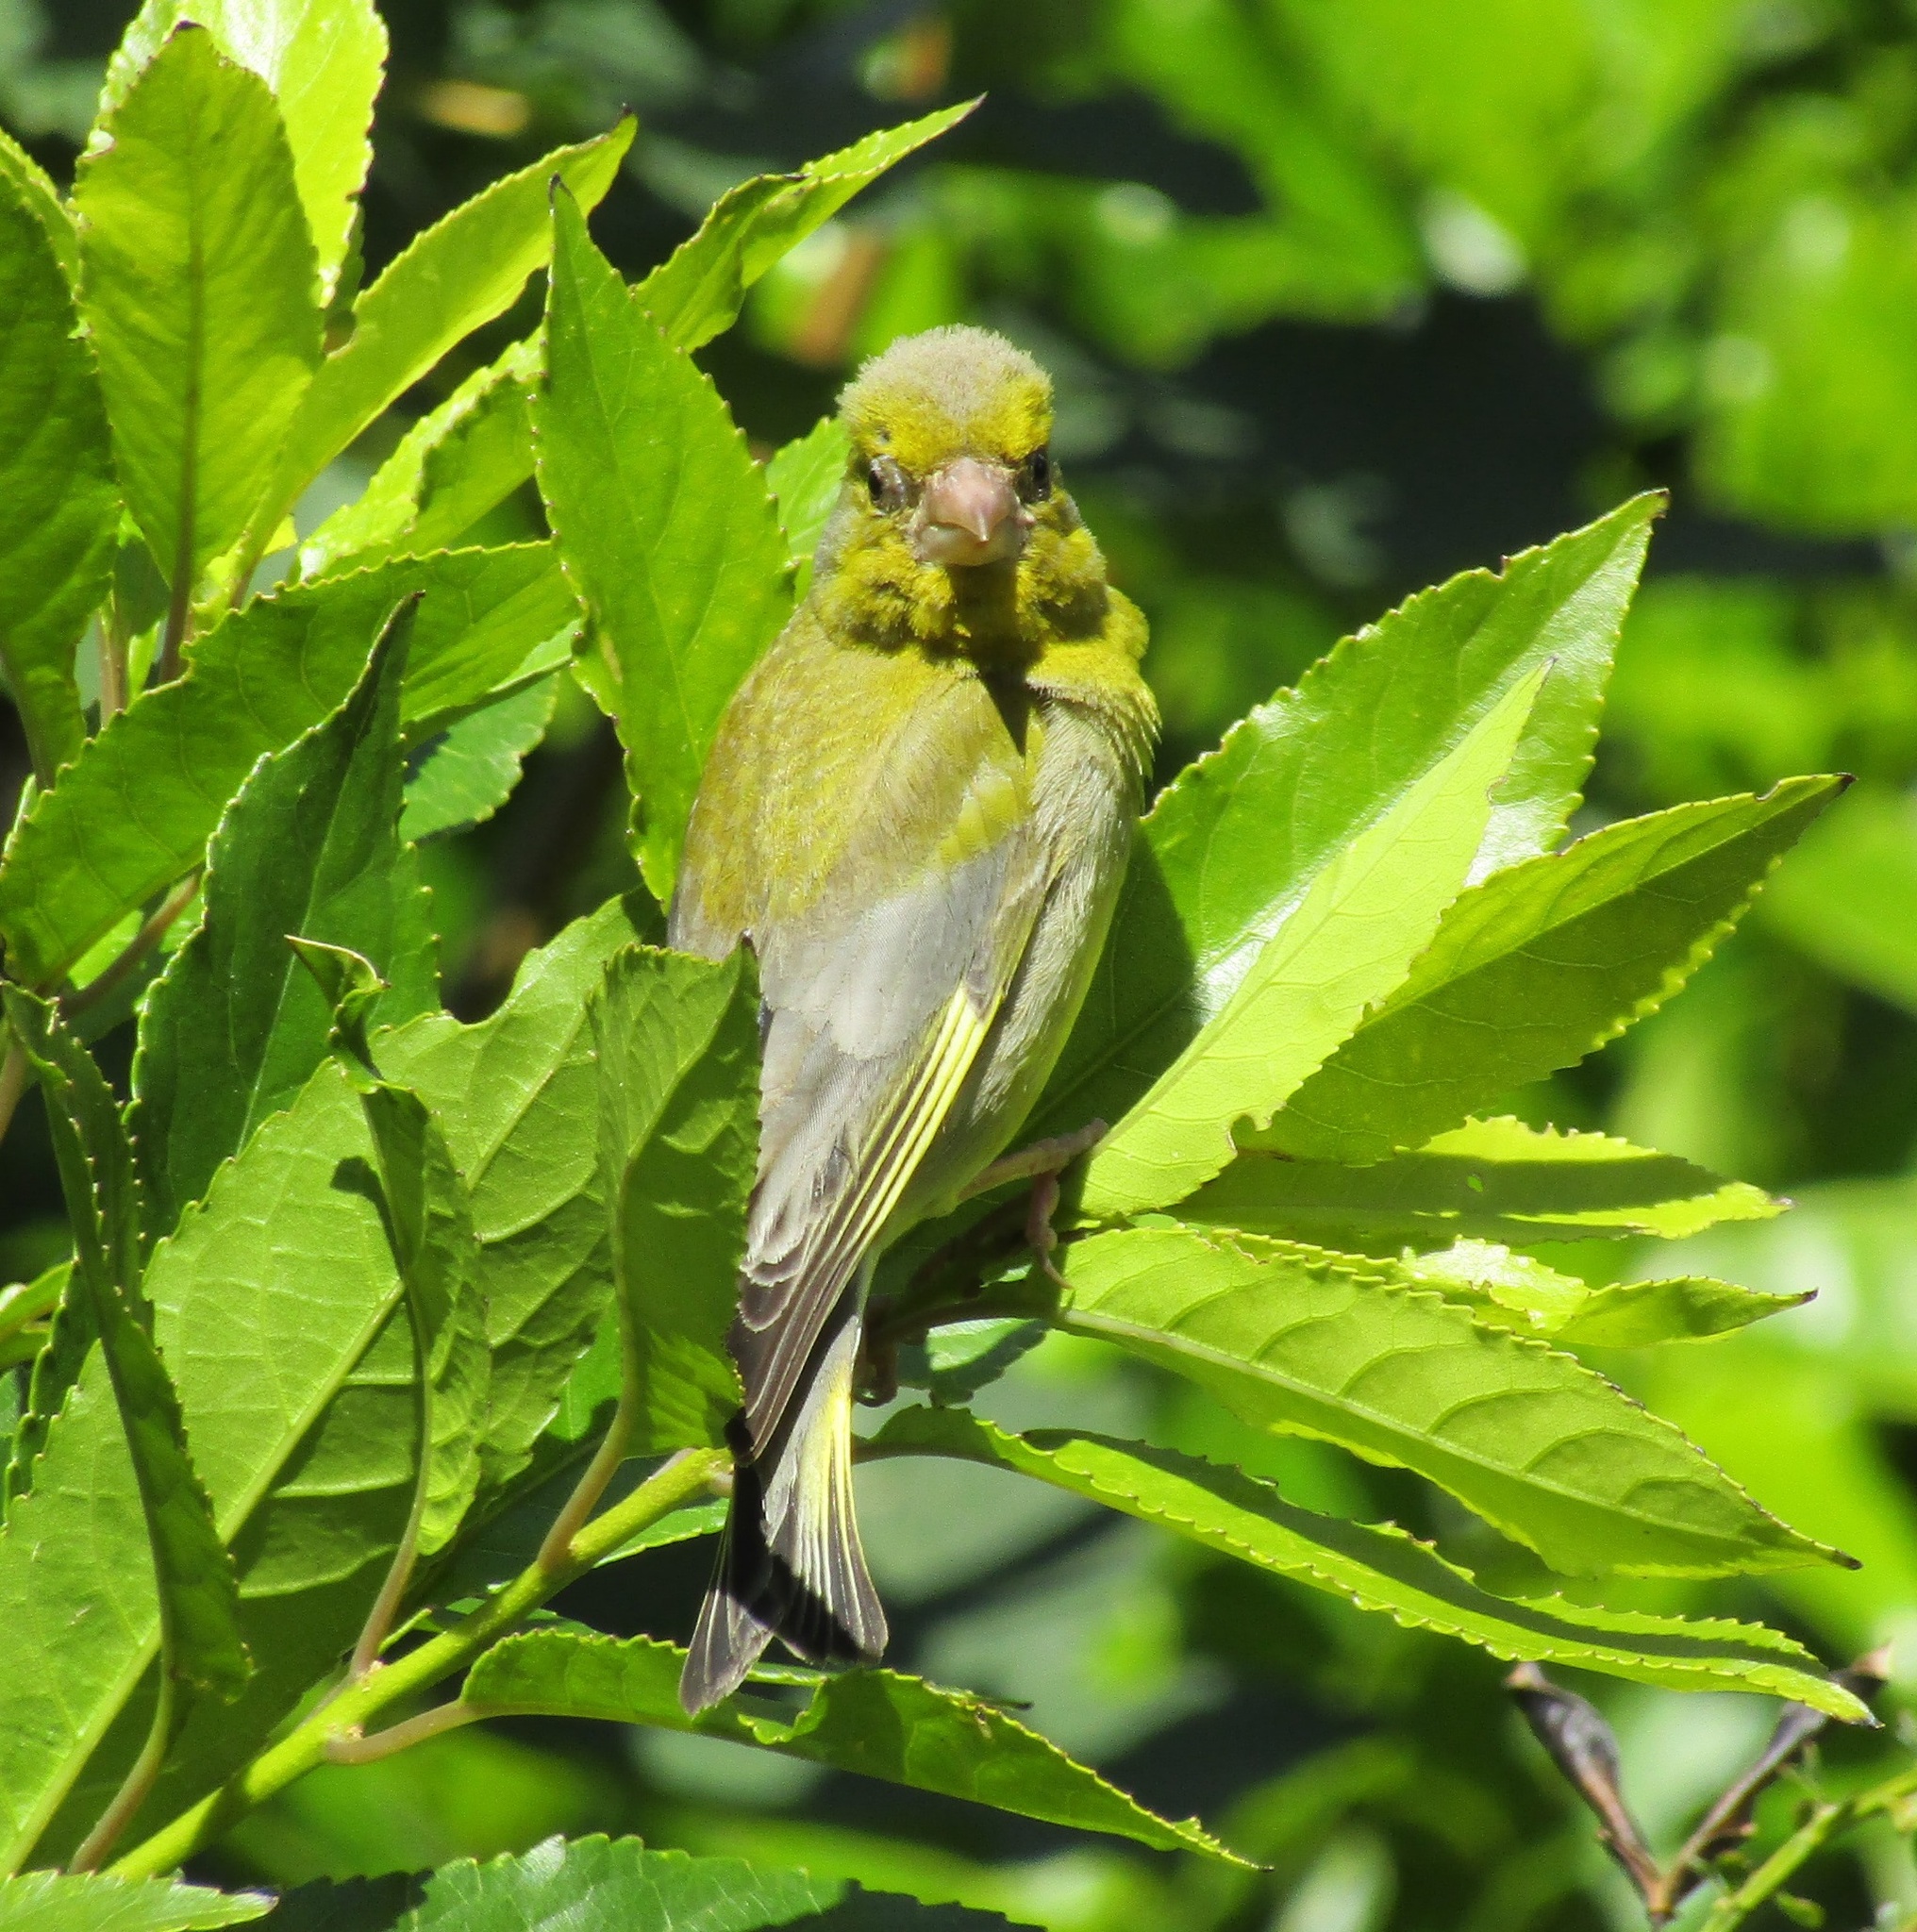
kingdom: Plantae
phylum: Tracheophyta
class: Liliopsida
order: Poales
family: Poaceae
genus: Chloris
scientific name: Chloris chloris
